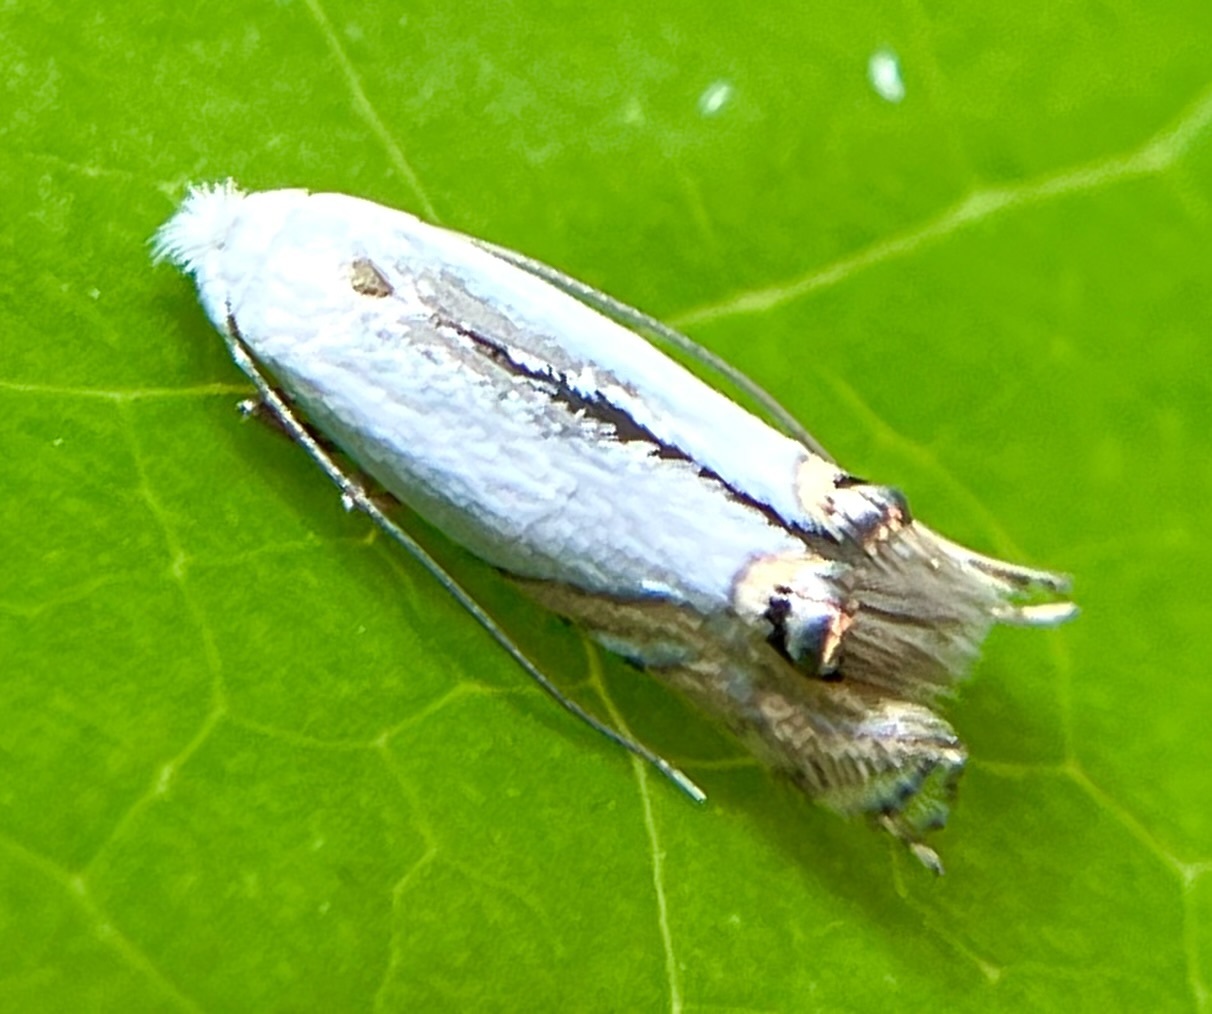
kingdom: Animalia
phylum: Arthropoda
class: Insecta
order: Lepidoptera
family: Lyonetiidae
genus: Leucoptera
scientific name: Leucoptera
